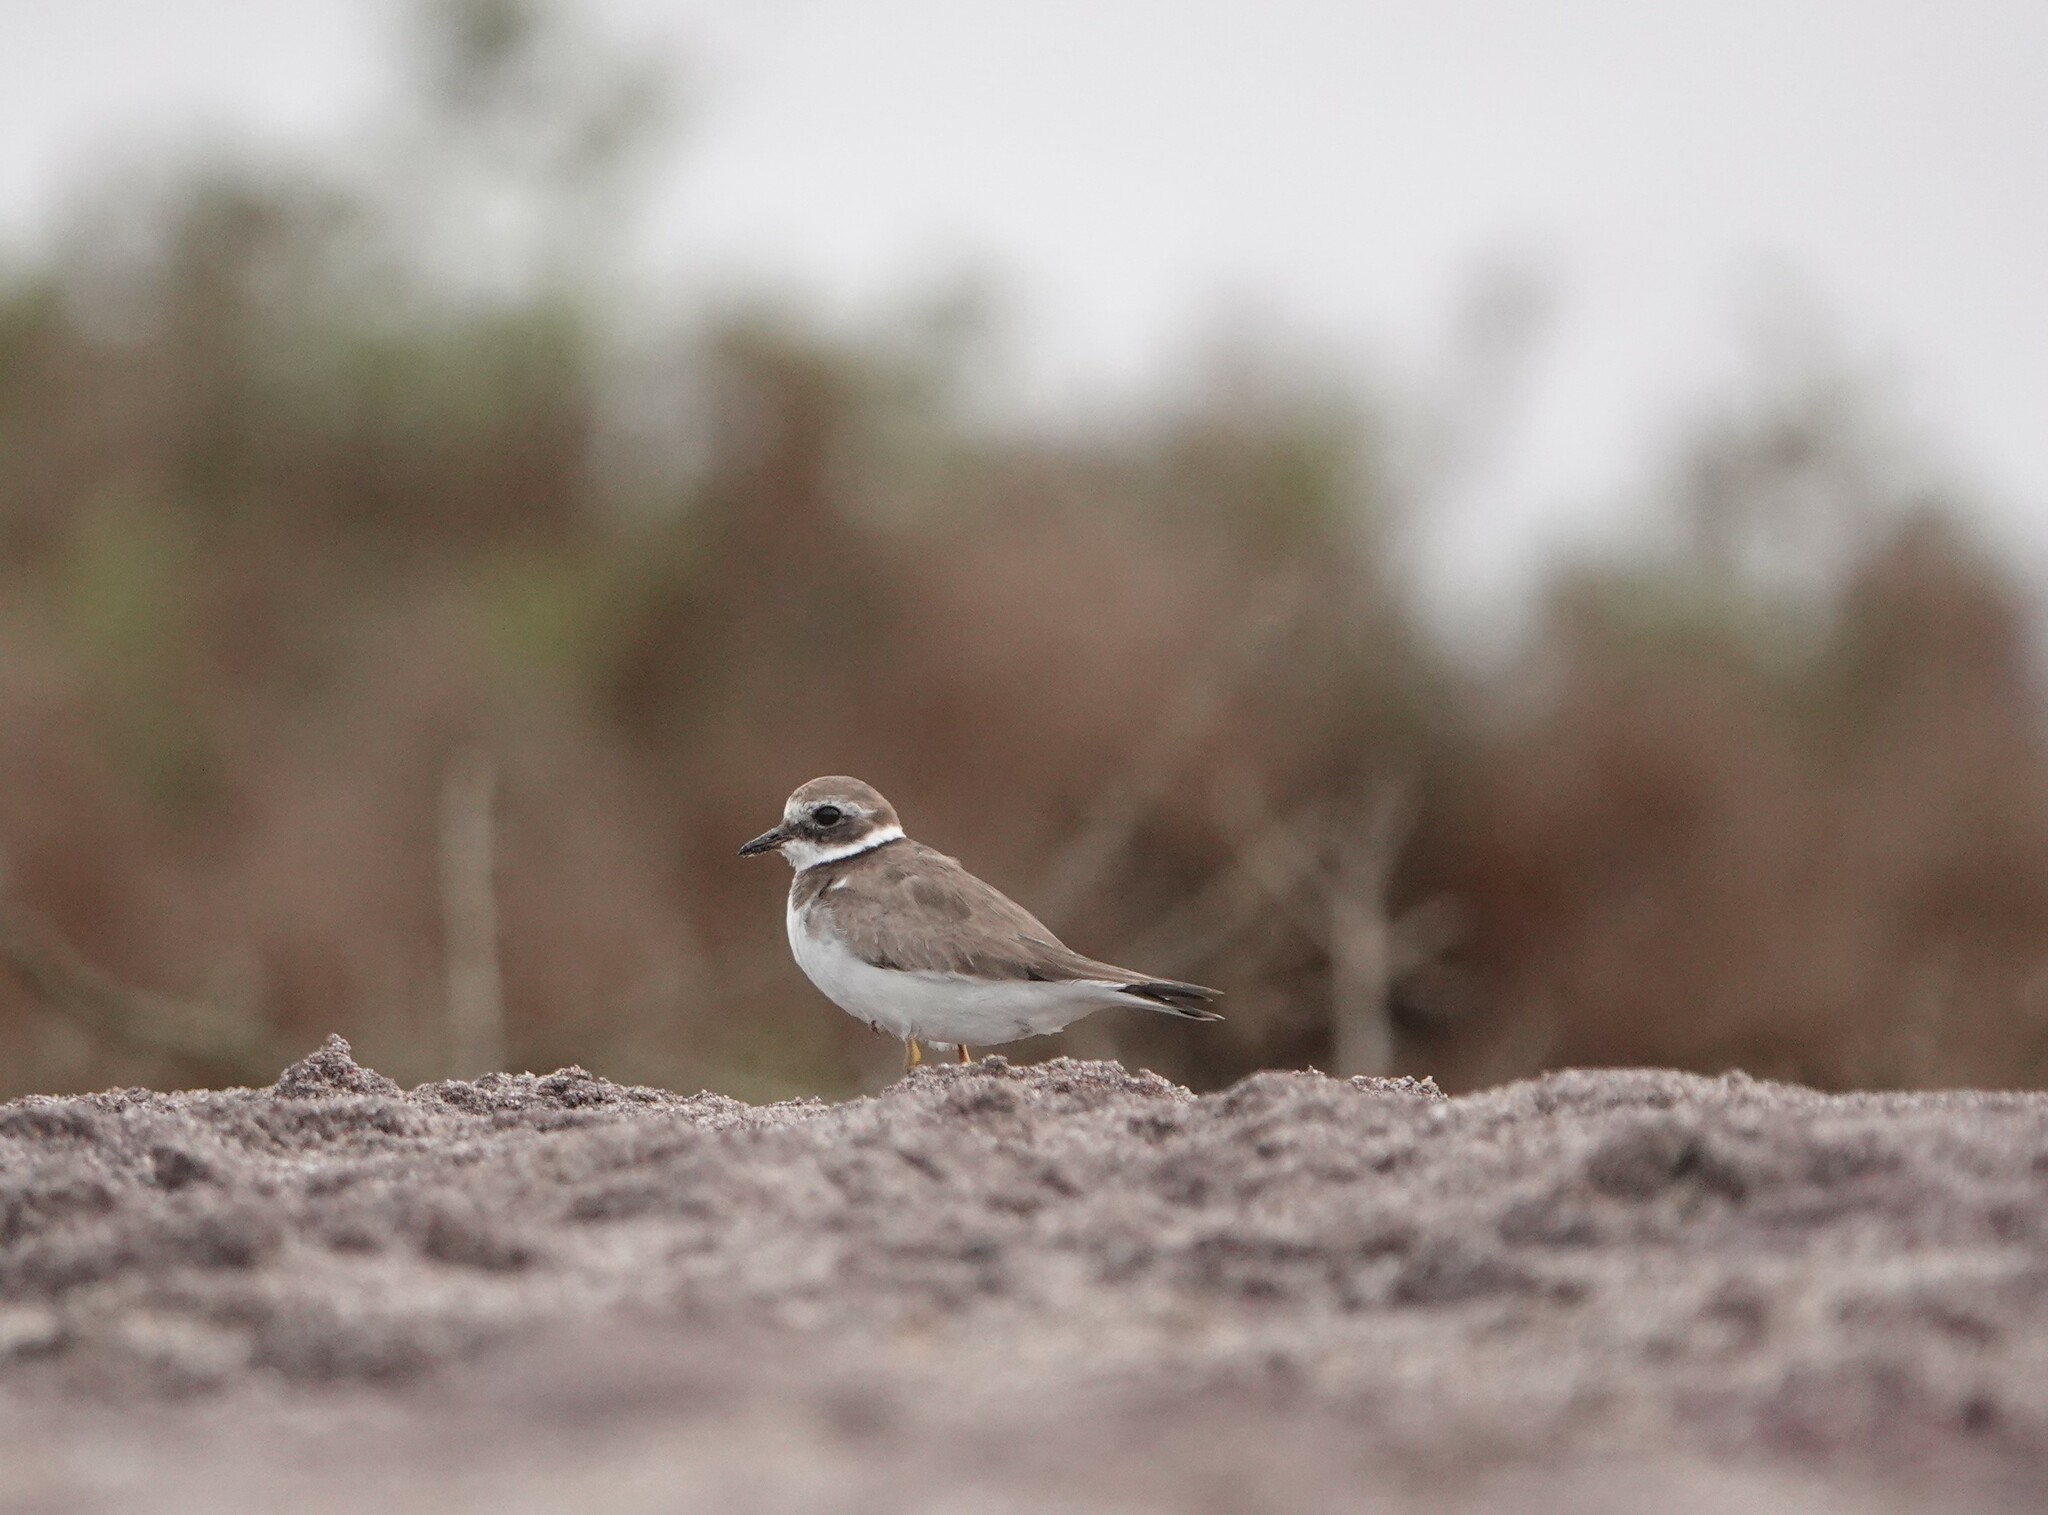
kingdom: Animalia
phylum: Chordata
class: Aves
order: Charadriiformes
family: Charadriidae
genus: Charadrius
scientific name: Charadrius hiaticula
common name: Common ringed plover
